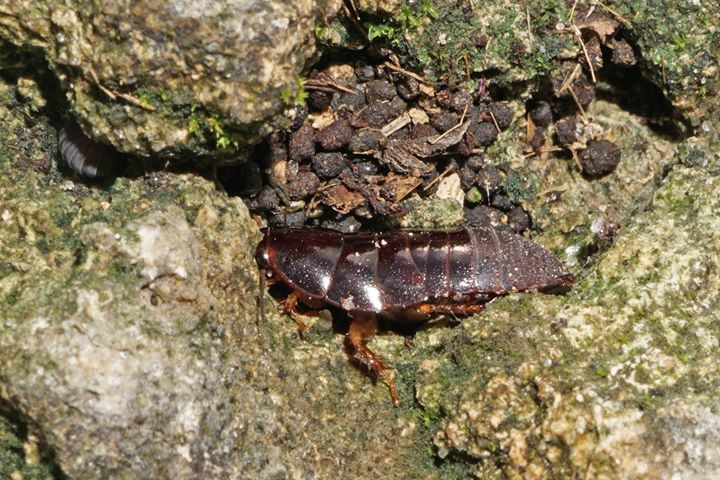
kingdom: Animalia
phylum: Arthropoda
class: Insecta
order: Blattodea
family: Blaberidae
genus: Pycnoscelus
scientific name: Pycnoscelus surinamensis
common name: Surinam cockroach
